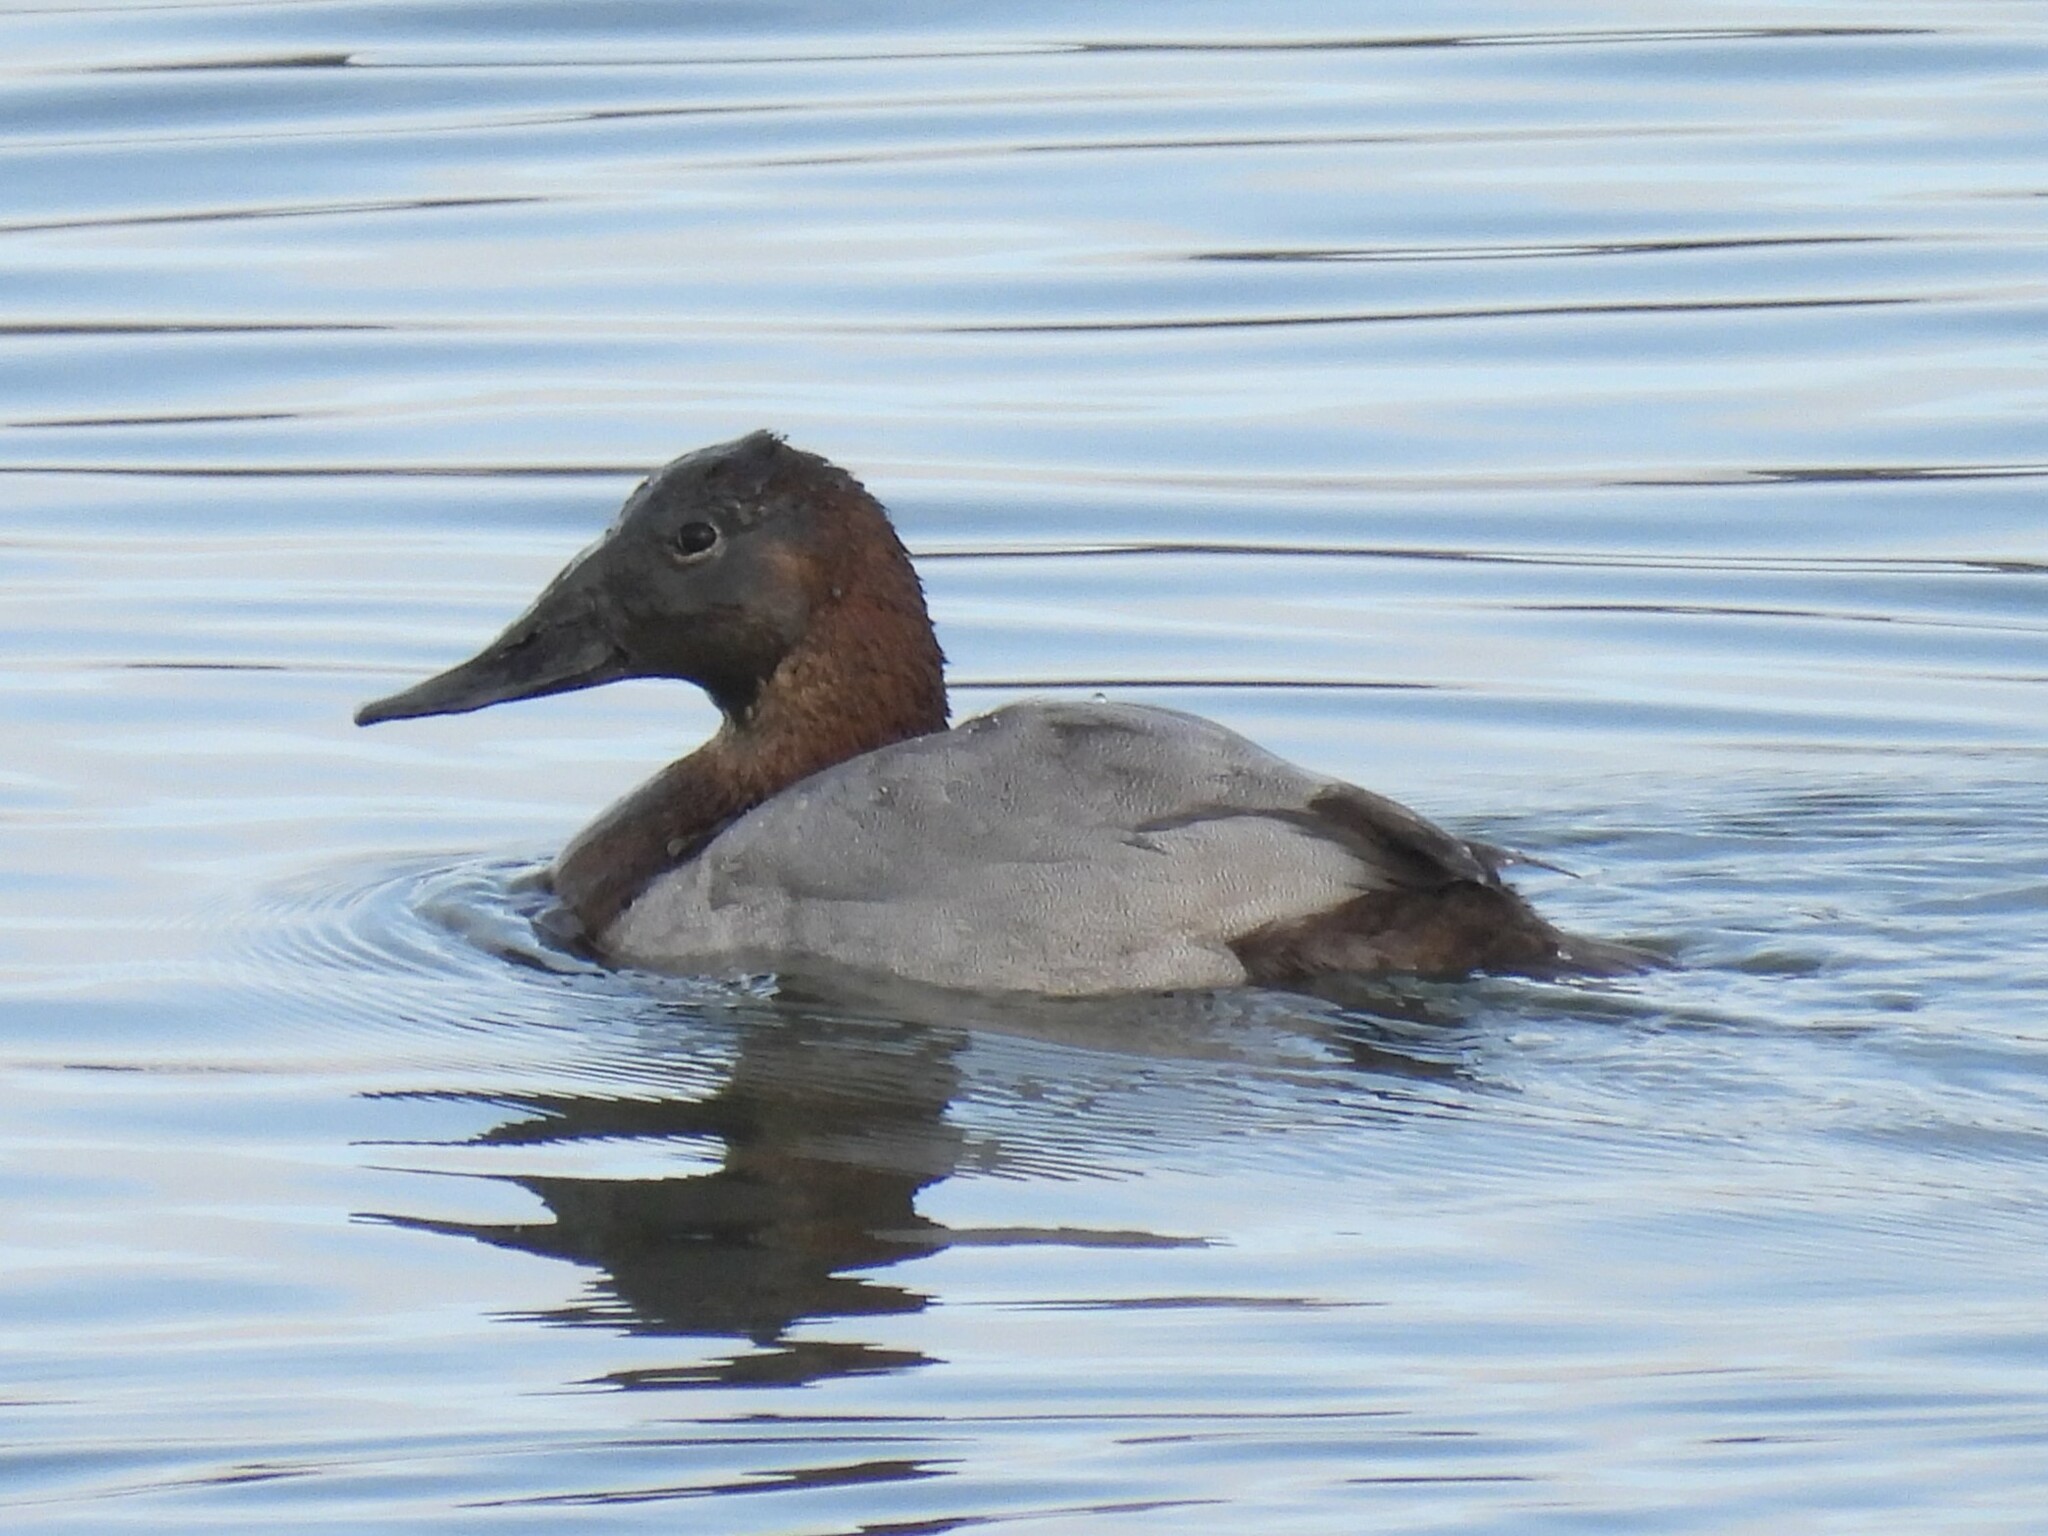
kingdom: Animalia
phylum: Chordata
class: Aves
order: Anseriformes
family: Anatidae
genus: Aythya
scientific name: Aythya valisineria
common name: Canvasback
